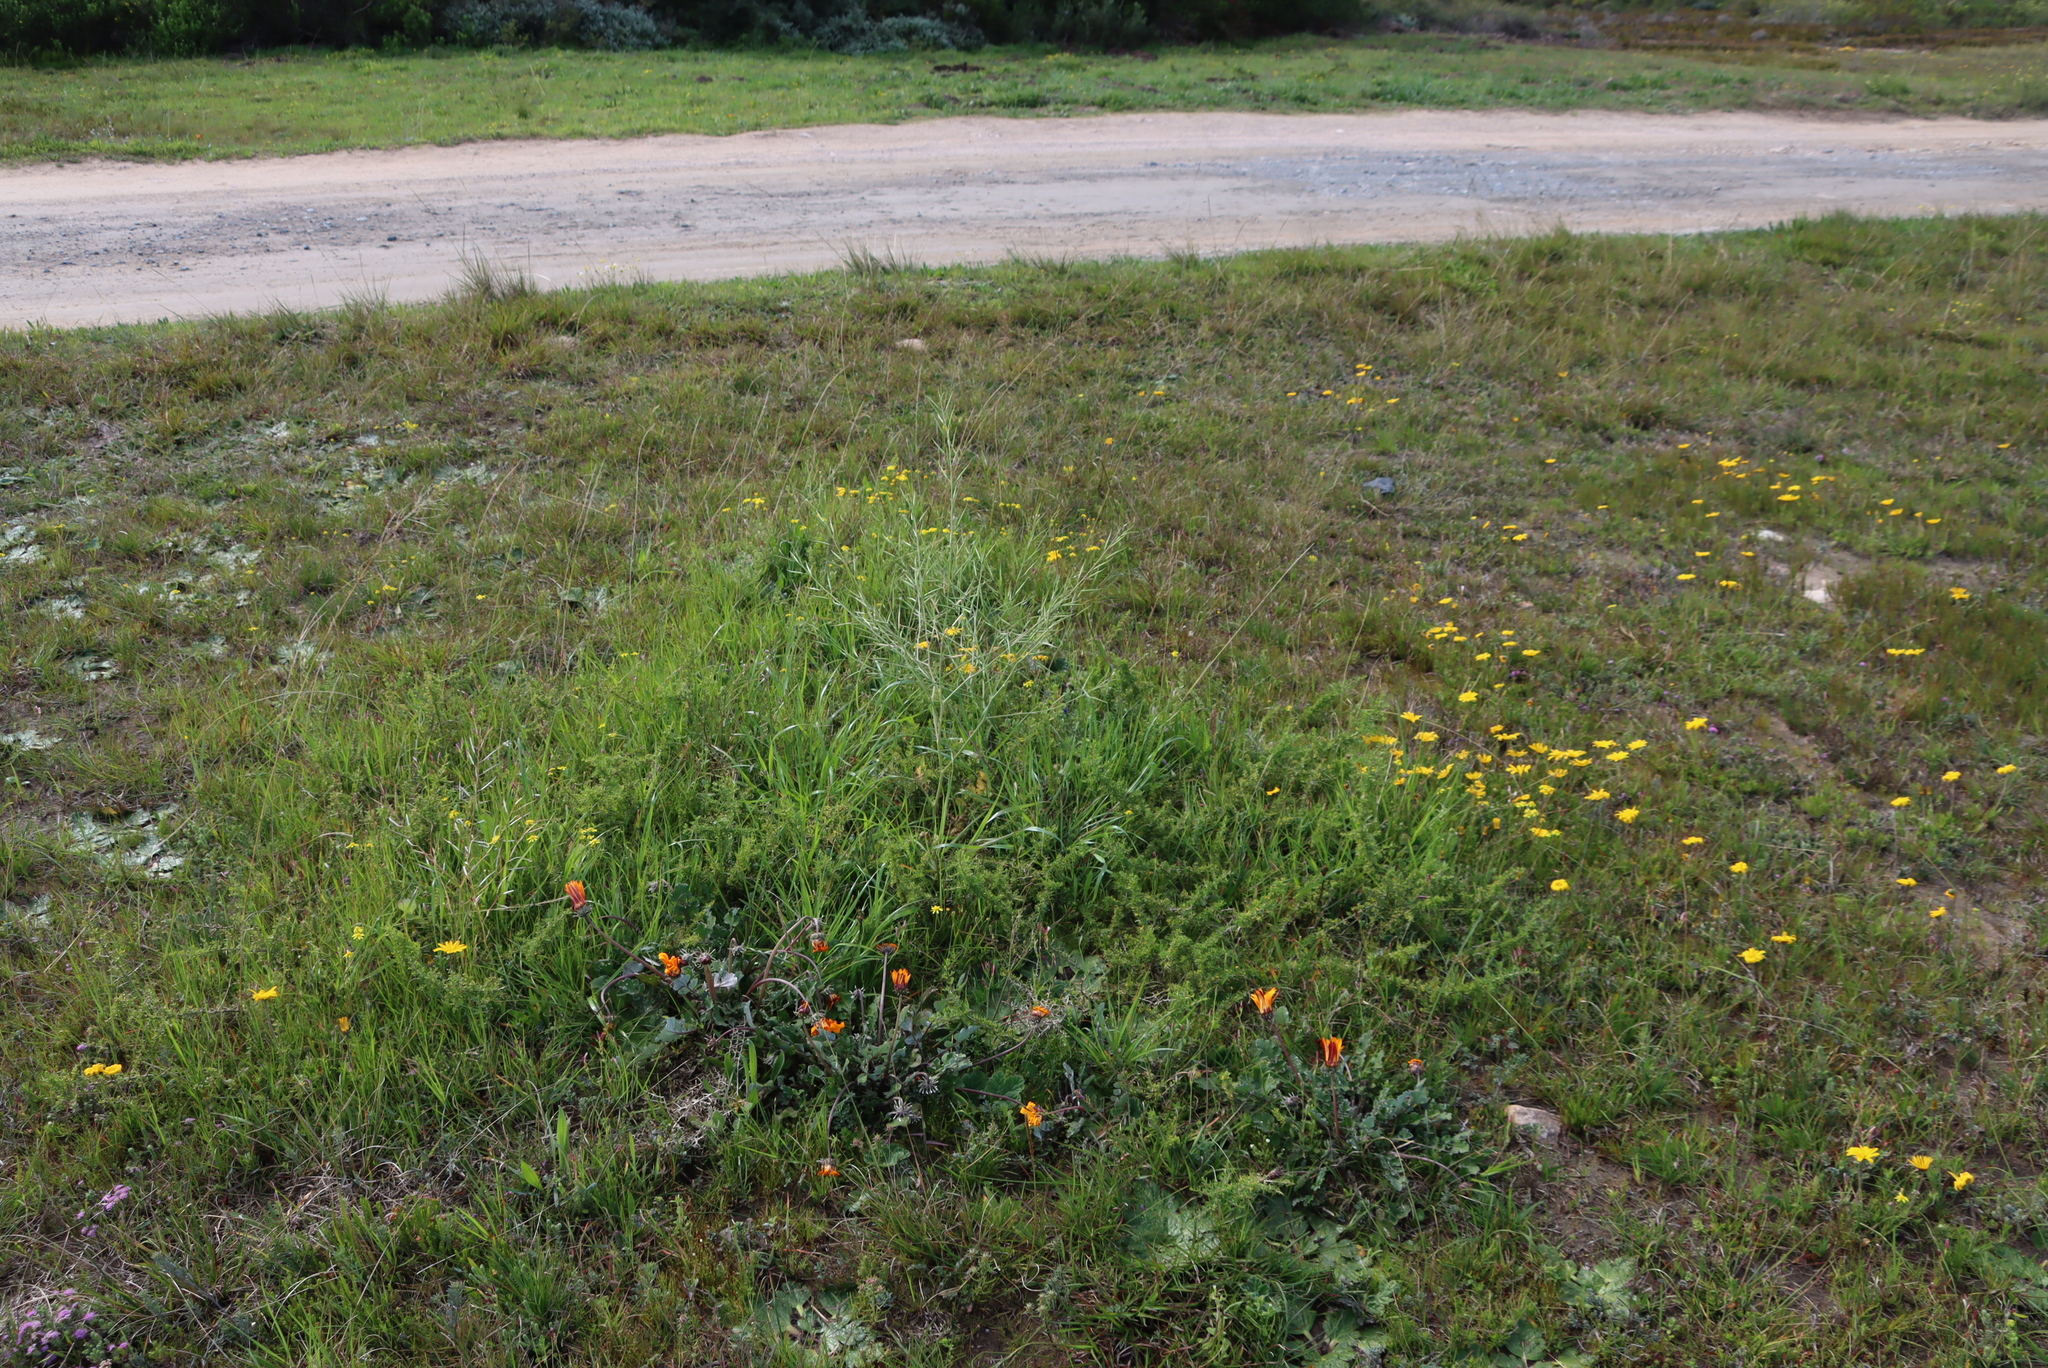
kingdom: Plantae
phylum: Tracheophyta
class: Magnoliopsida
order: Brassicales
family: Brassicaceae
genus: Brassica
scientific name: Brassica tournefortii
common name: Pale cabbage
